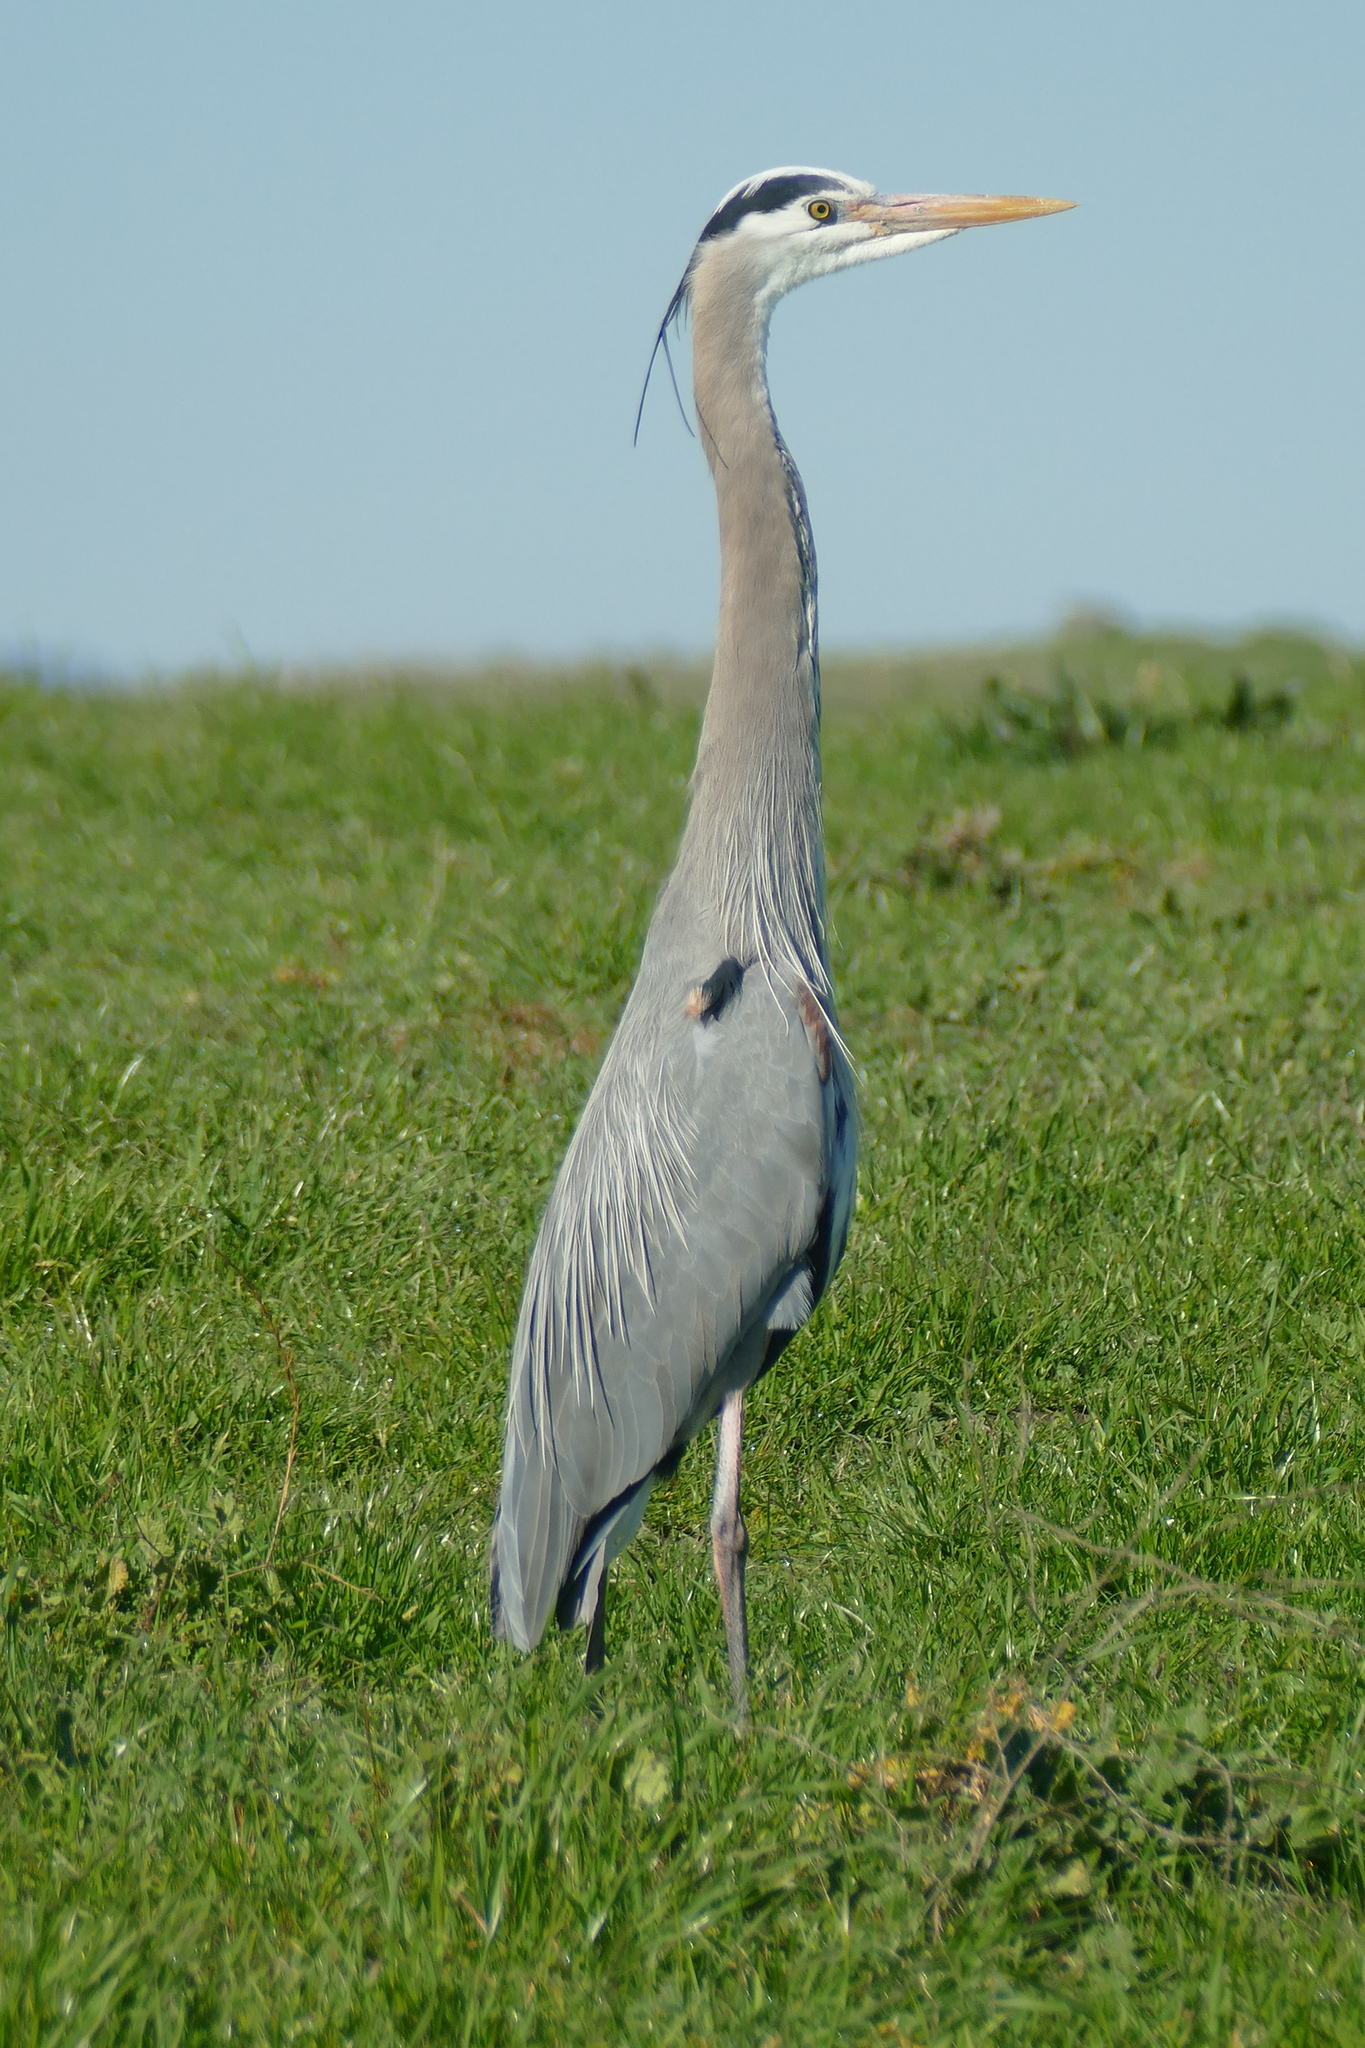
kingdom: Animalia
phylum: Chordata
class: Aves
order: Pelecaniformes
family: Ardeidae
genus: Ardea
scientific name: Ardea herodias
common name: Great blue heron
